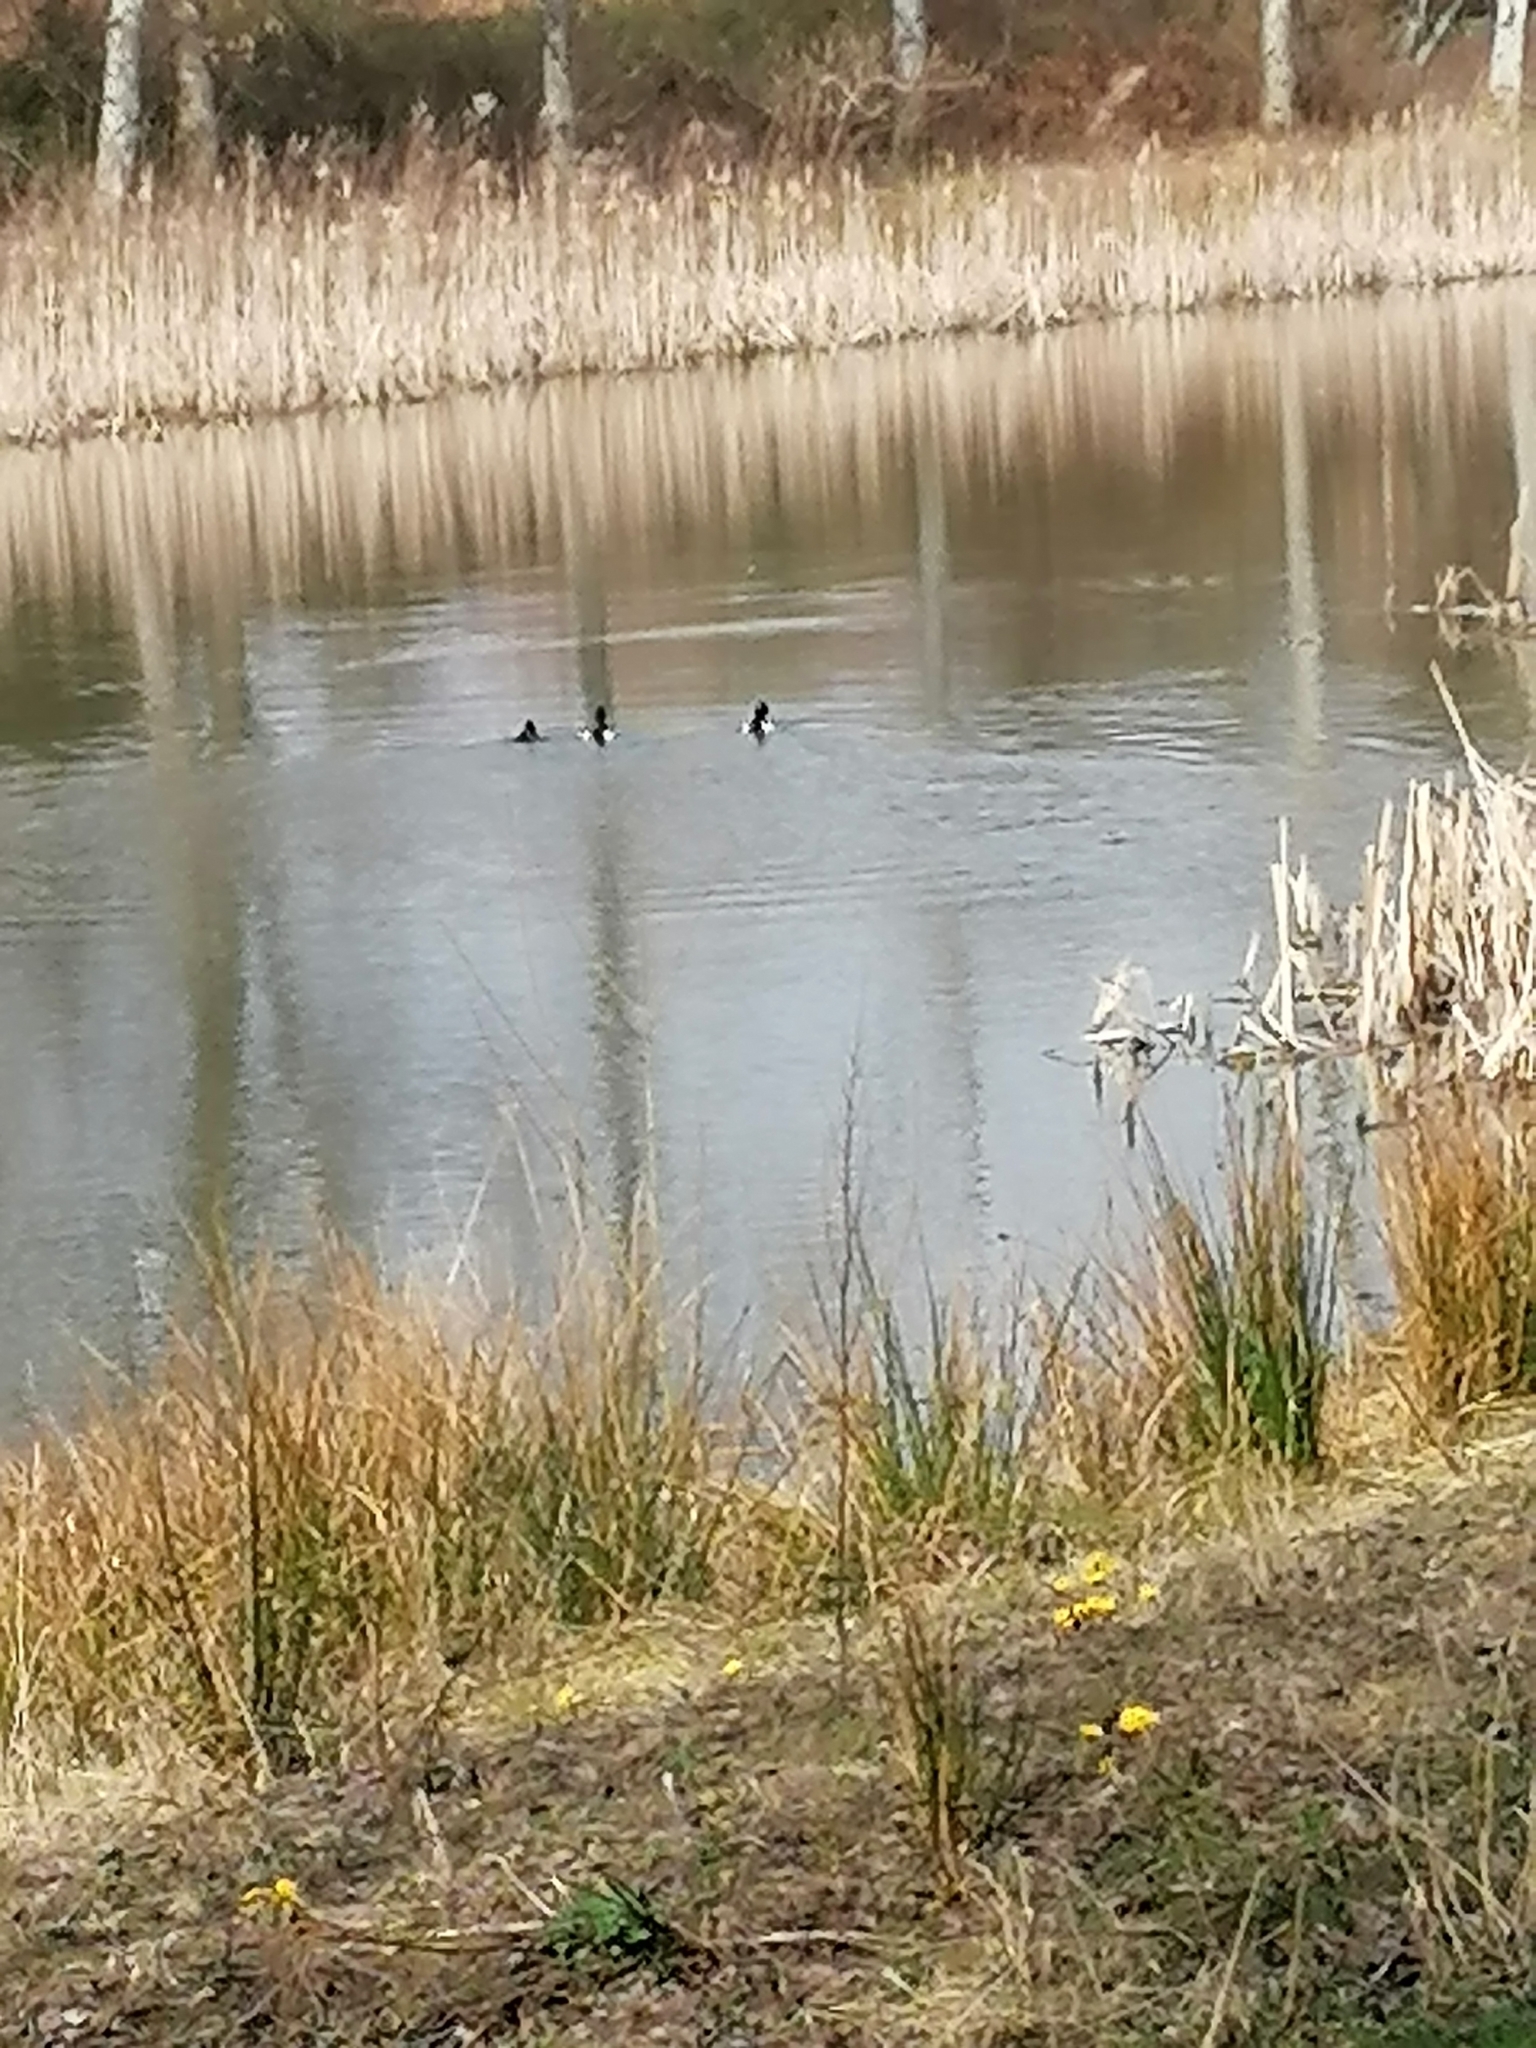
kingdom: Animalia
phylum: Chordata
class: Aves
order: Anseriformes
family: Anatidae
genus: Aythya
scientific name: Aythya fuligula
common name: Tufted duck
